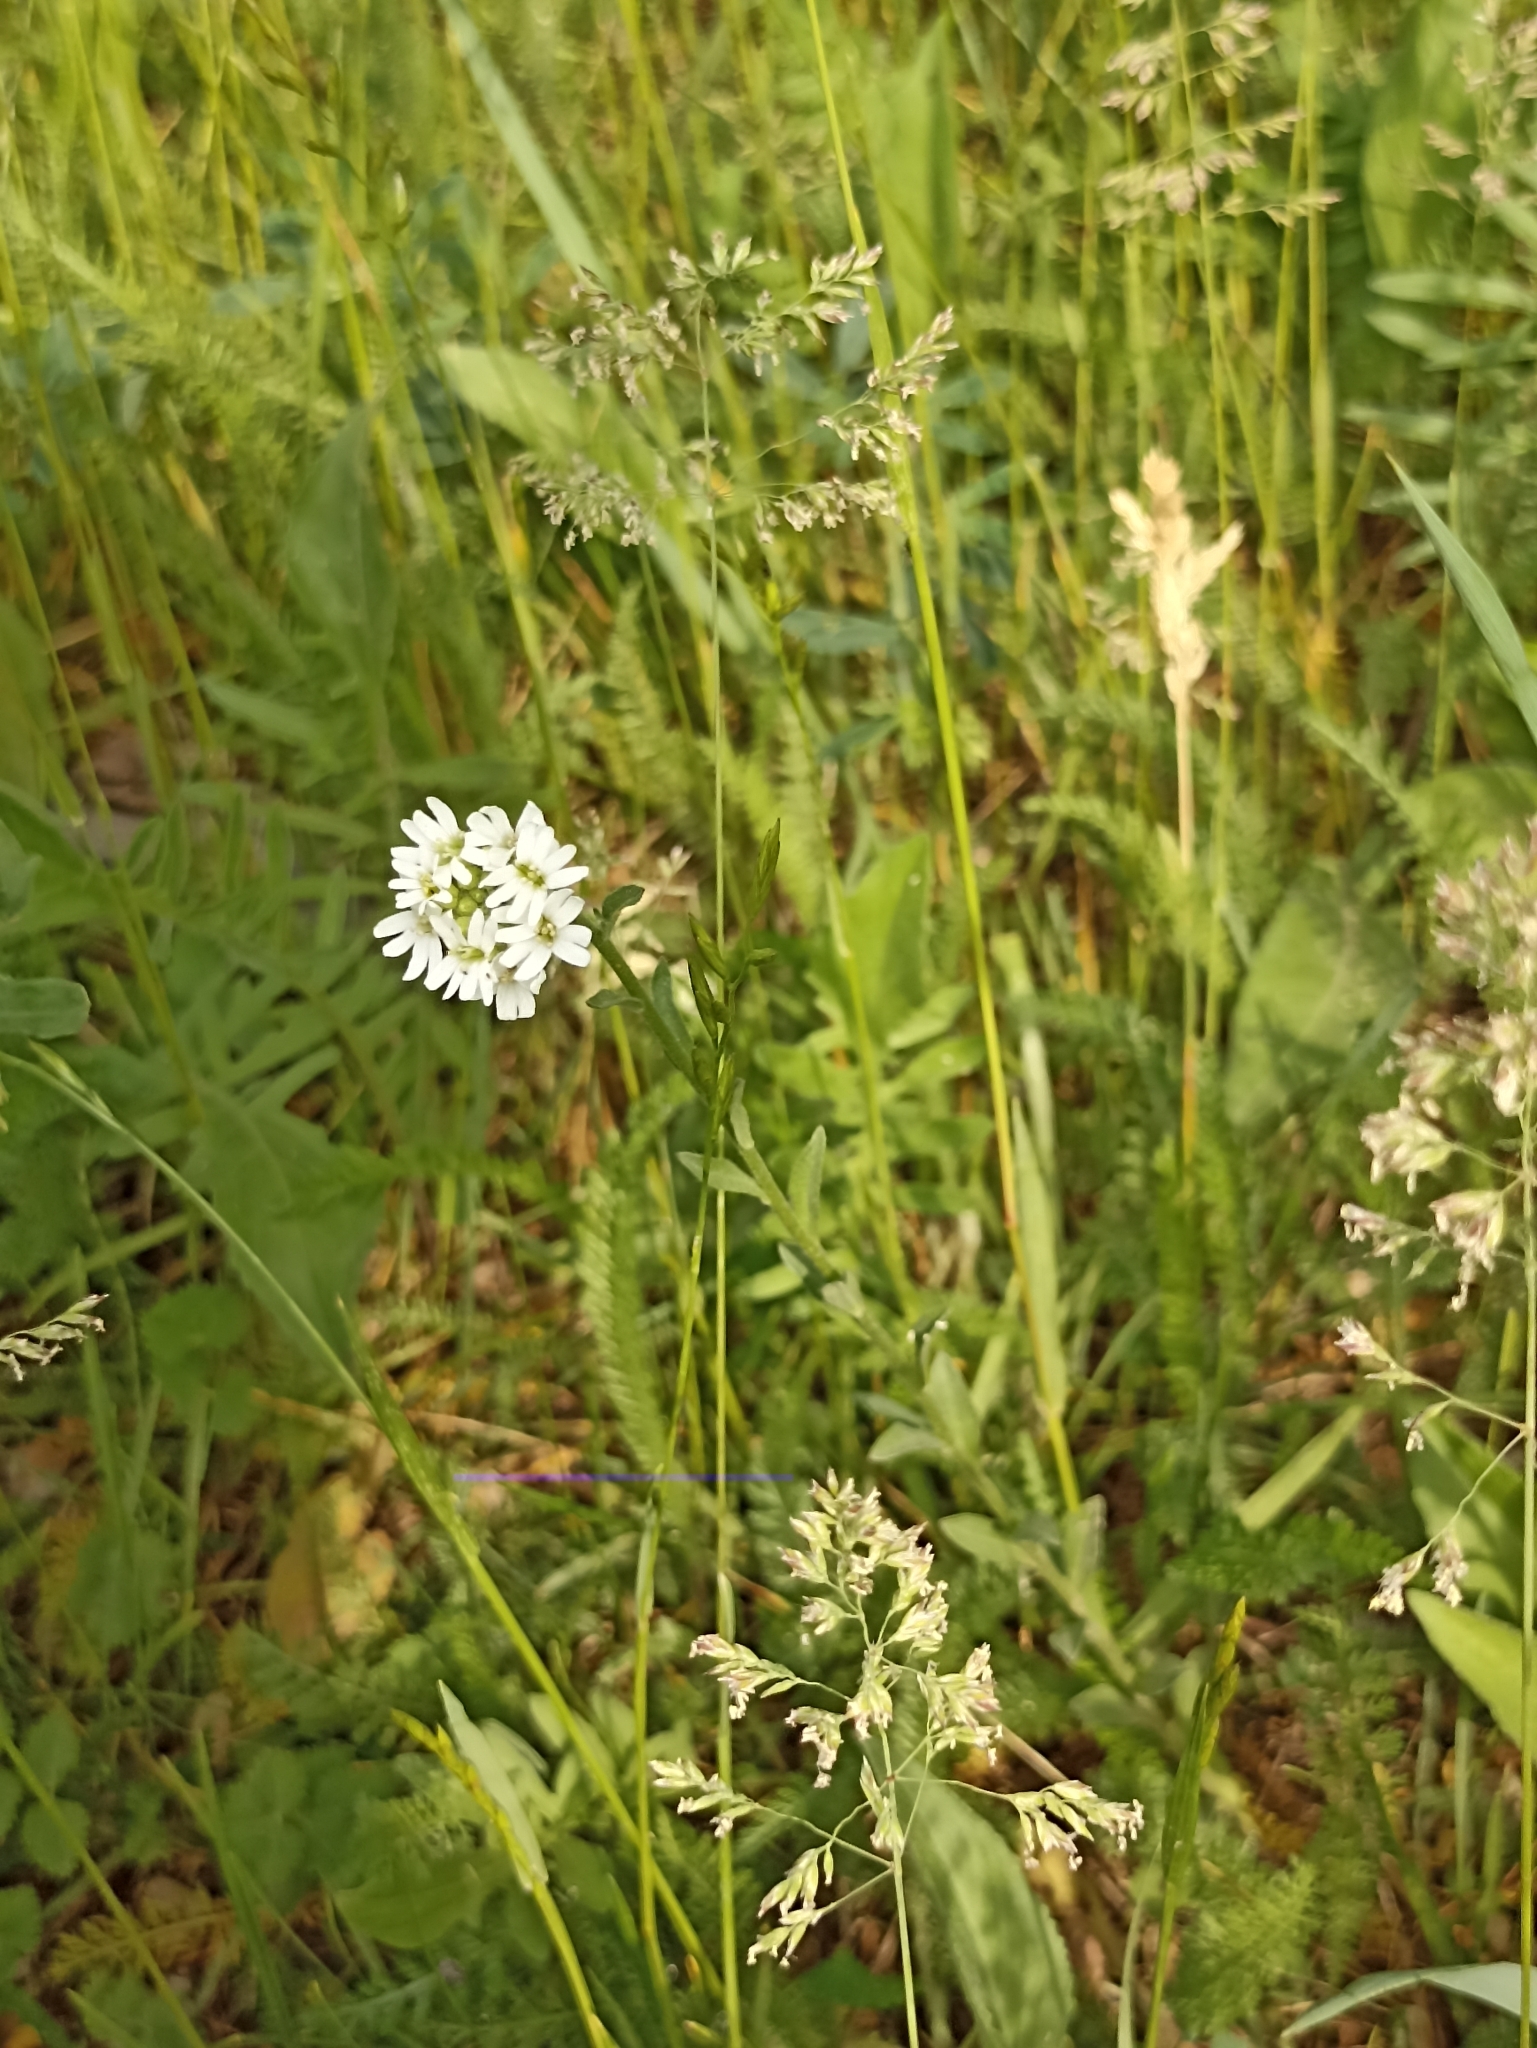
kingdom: Plantae
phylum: Tracheophyta
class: Magnoliopsida
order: Brassicales
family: Brassicaceae
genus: Berteroa
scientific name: Berteroa incana
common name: Hoary alison
